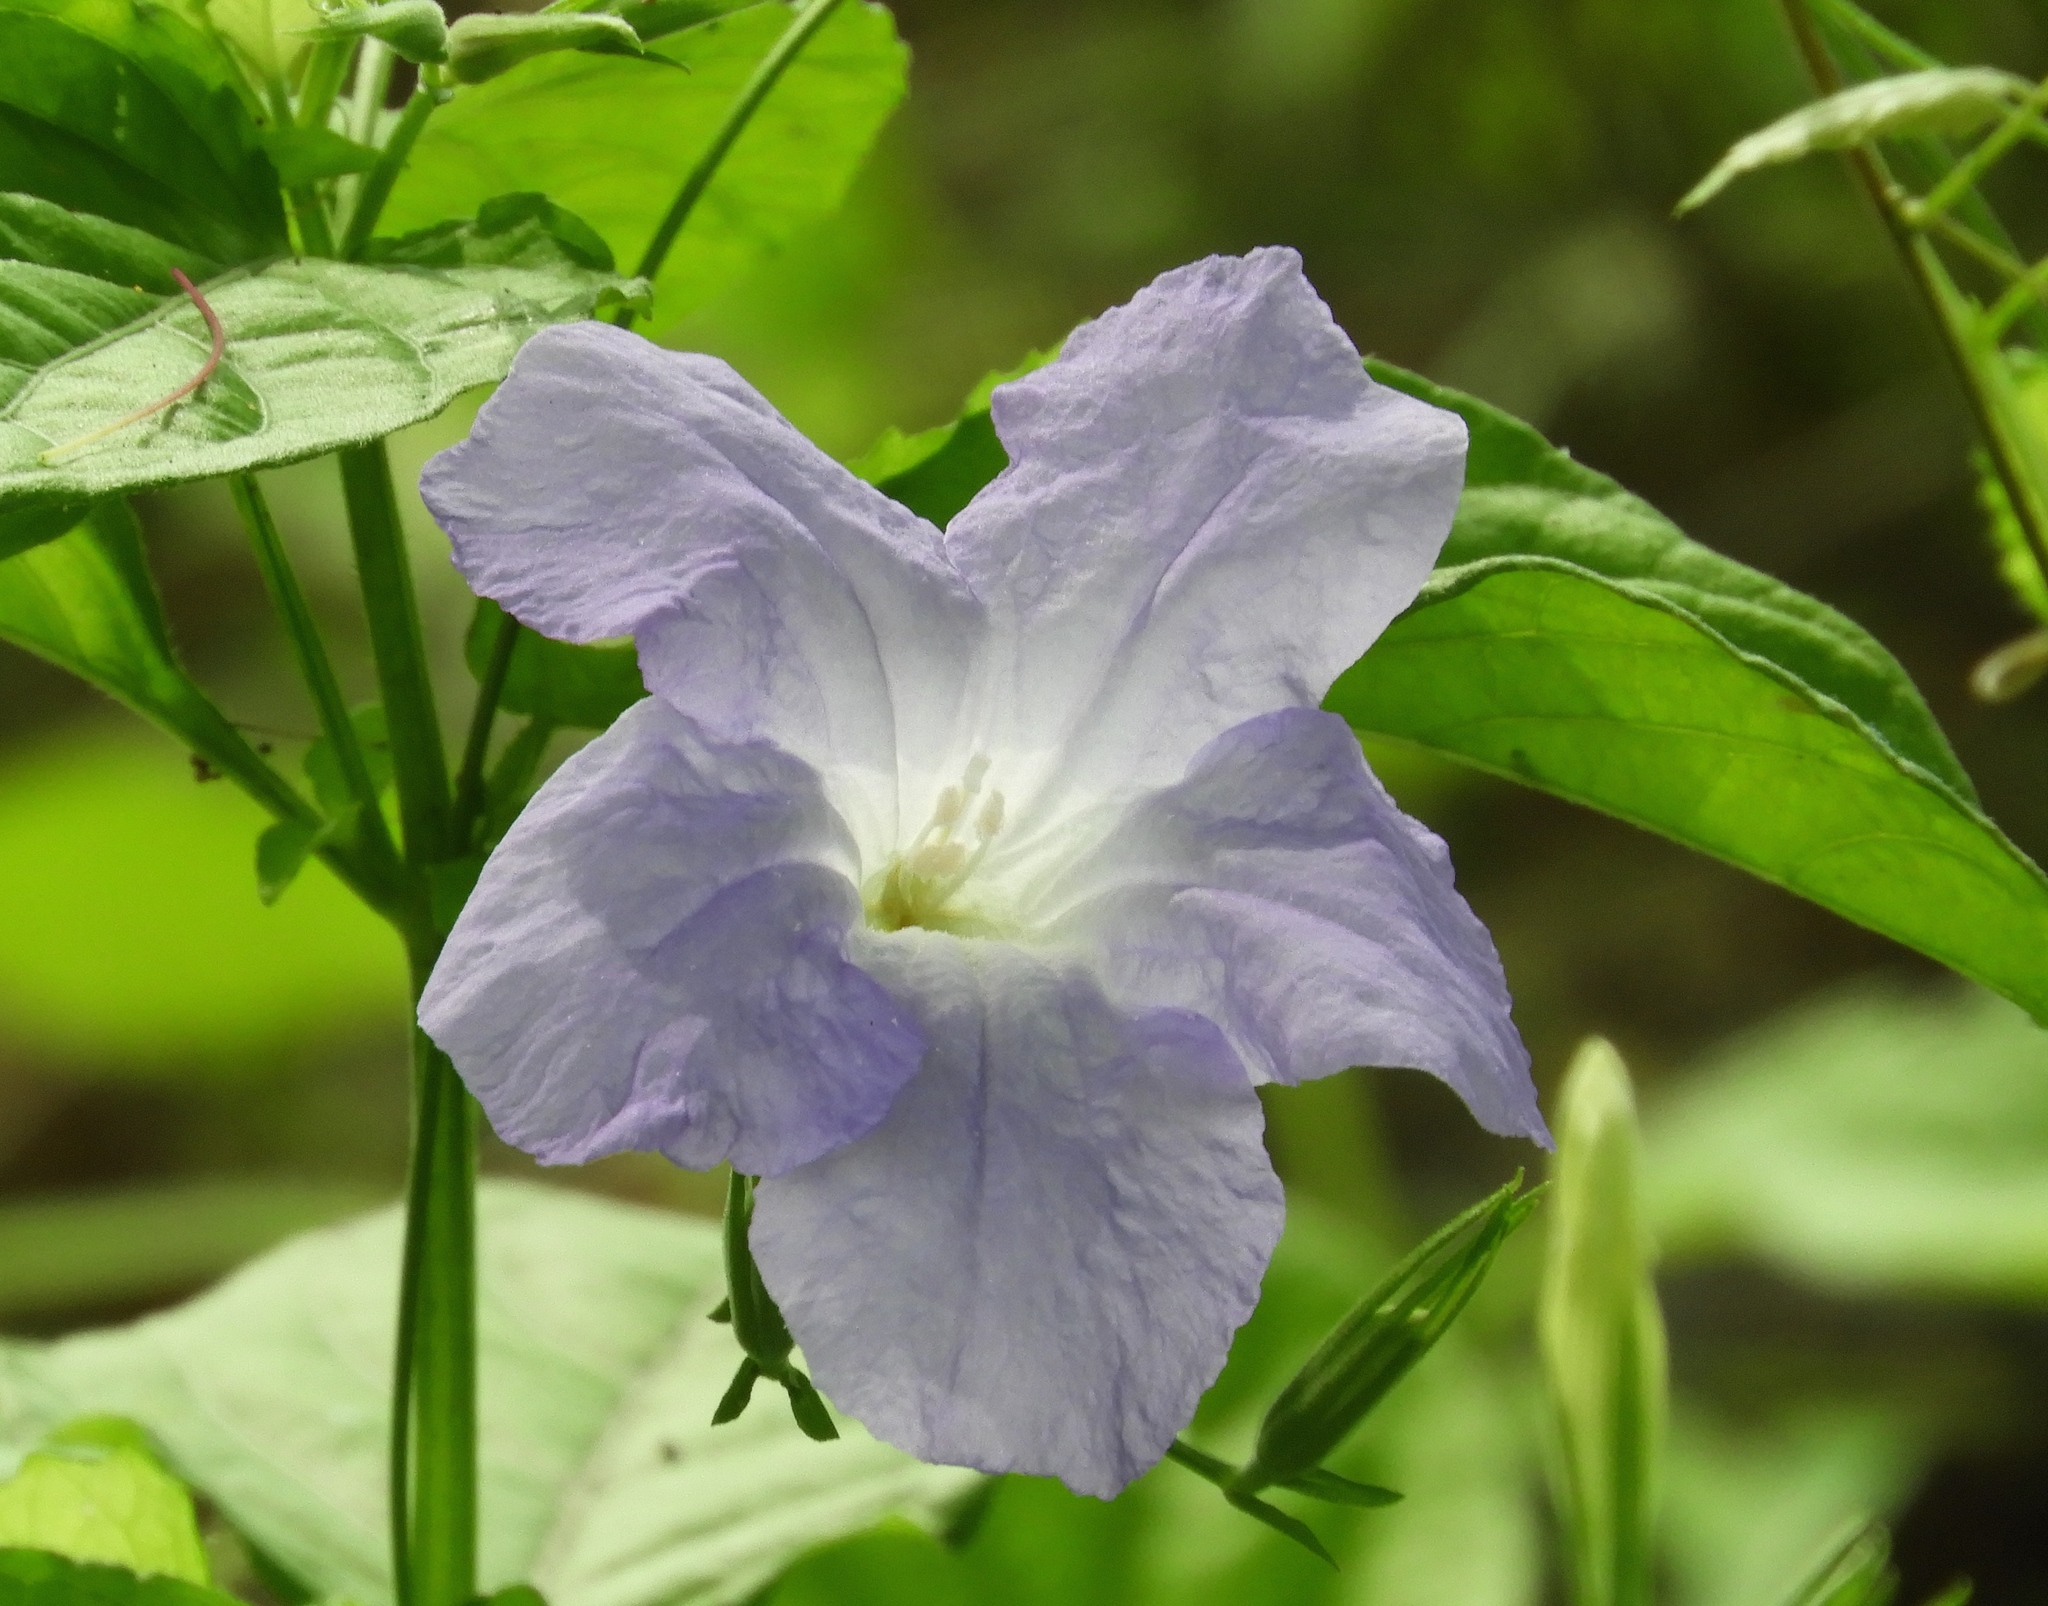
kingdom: Plantae
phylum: Tracheophyta
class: Magnoliopsida
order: Lamiales
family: Acanthaceae
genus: Ruellia
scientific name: Ruellia intermedia
